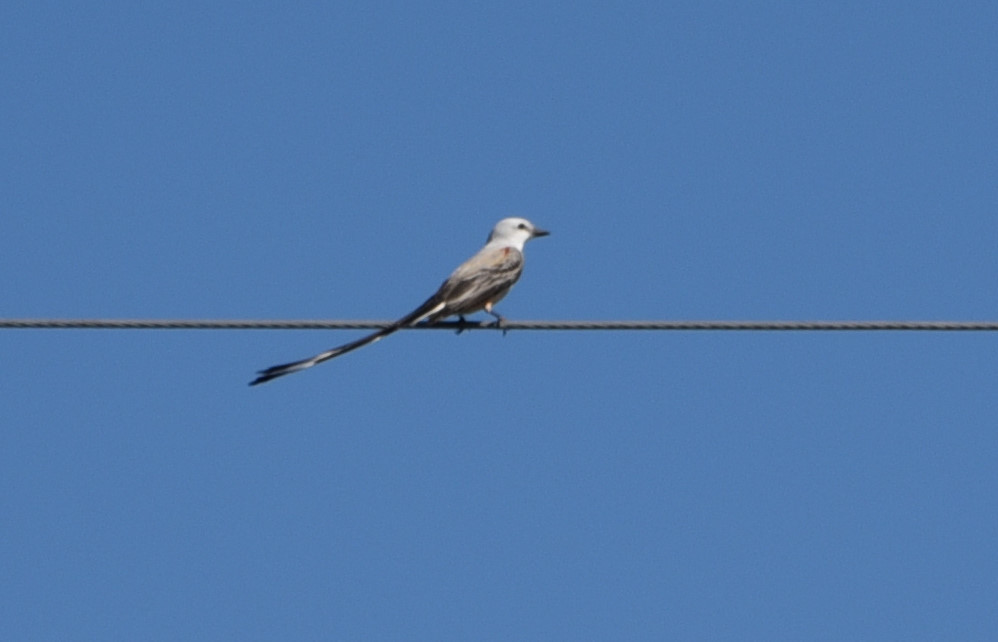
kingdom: Animalia
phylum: Chordata
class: Aves
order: Passeriformes
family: Tyrannidae
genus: Tyrannus
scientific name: Tyrannus forficatus
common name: Scissor-tailed flycatcher
